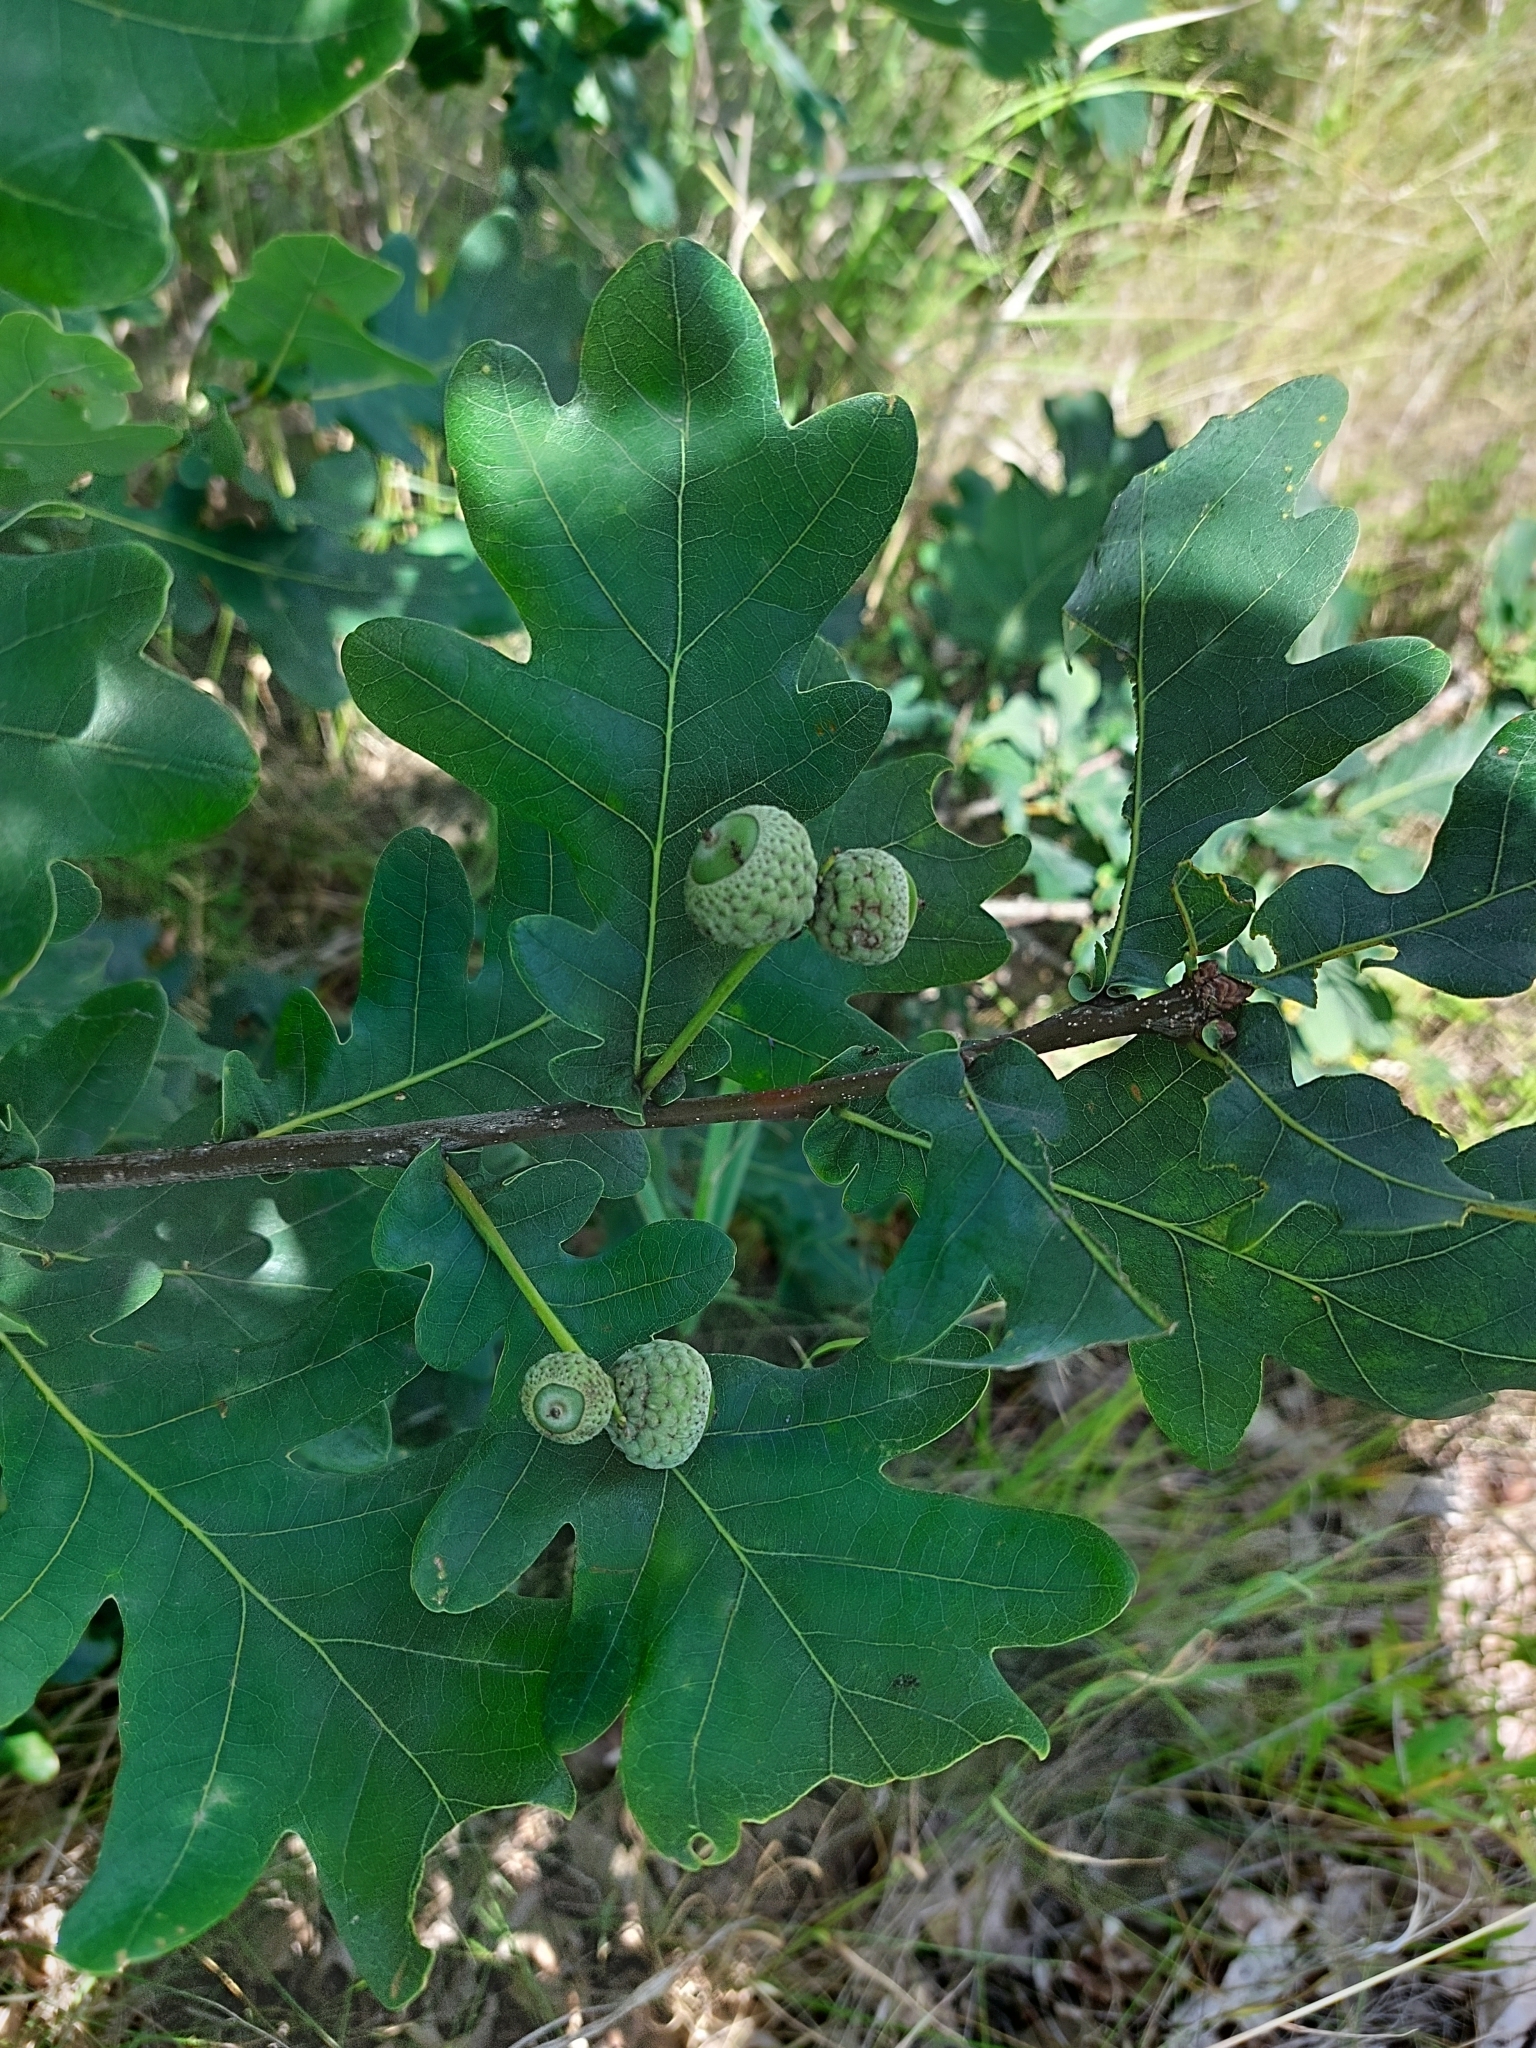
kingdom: Plantae
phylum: Tracheophyta
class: Magnoliopsida
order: Fagales
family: Fagaceae
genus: Quercus
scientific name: Quercus robur
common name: Pedunculate oak
